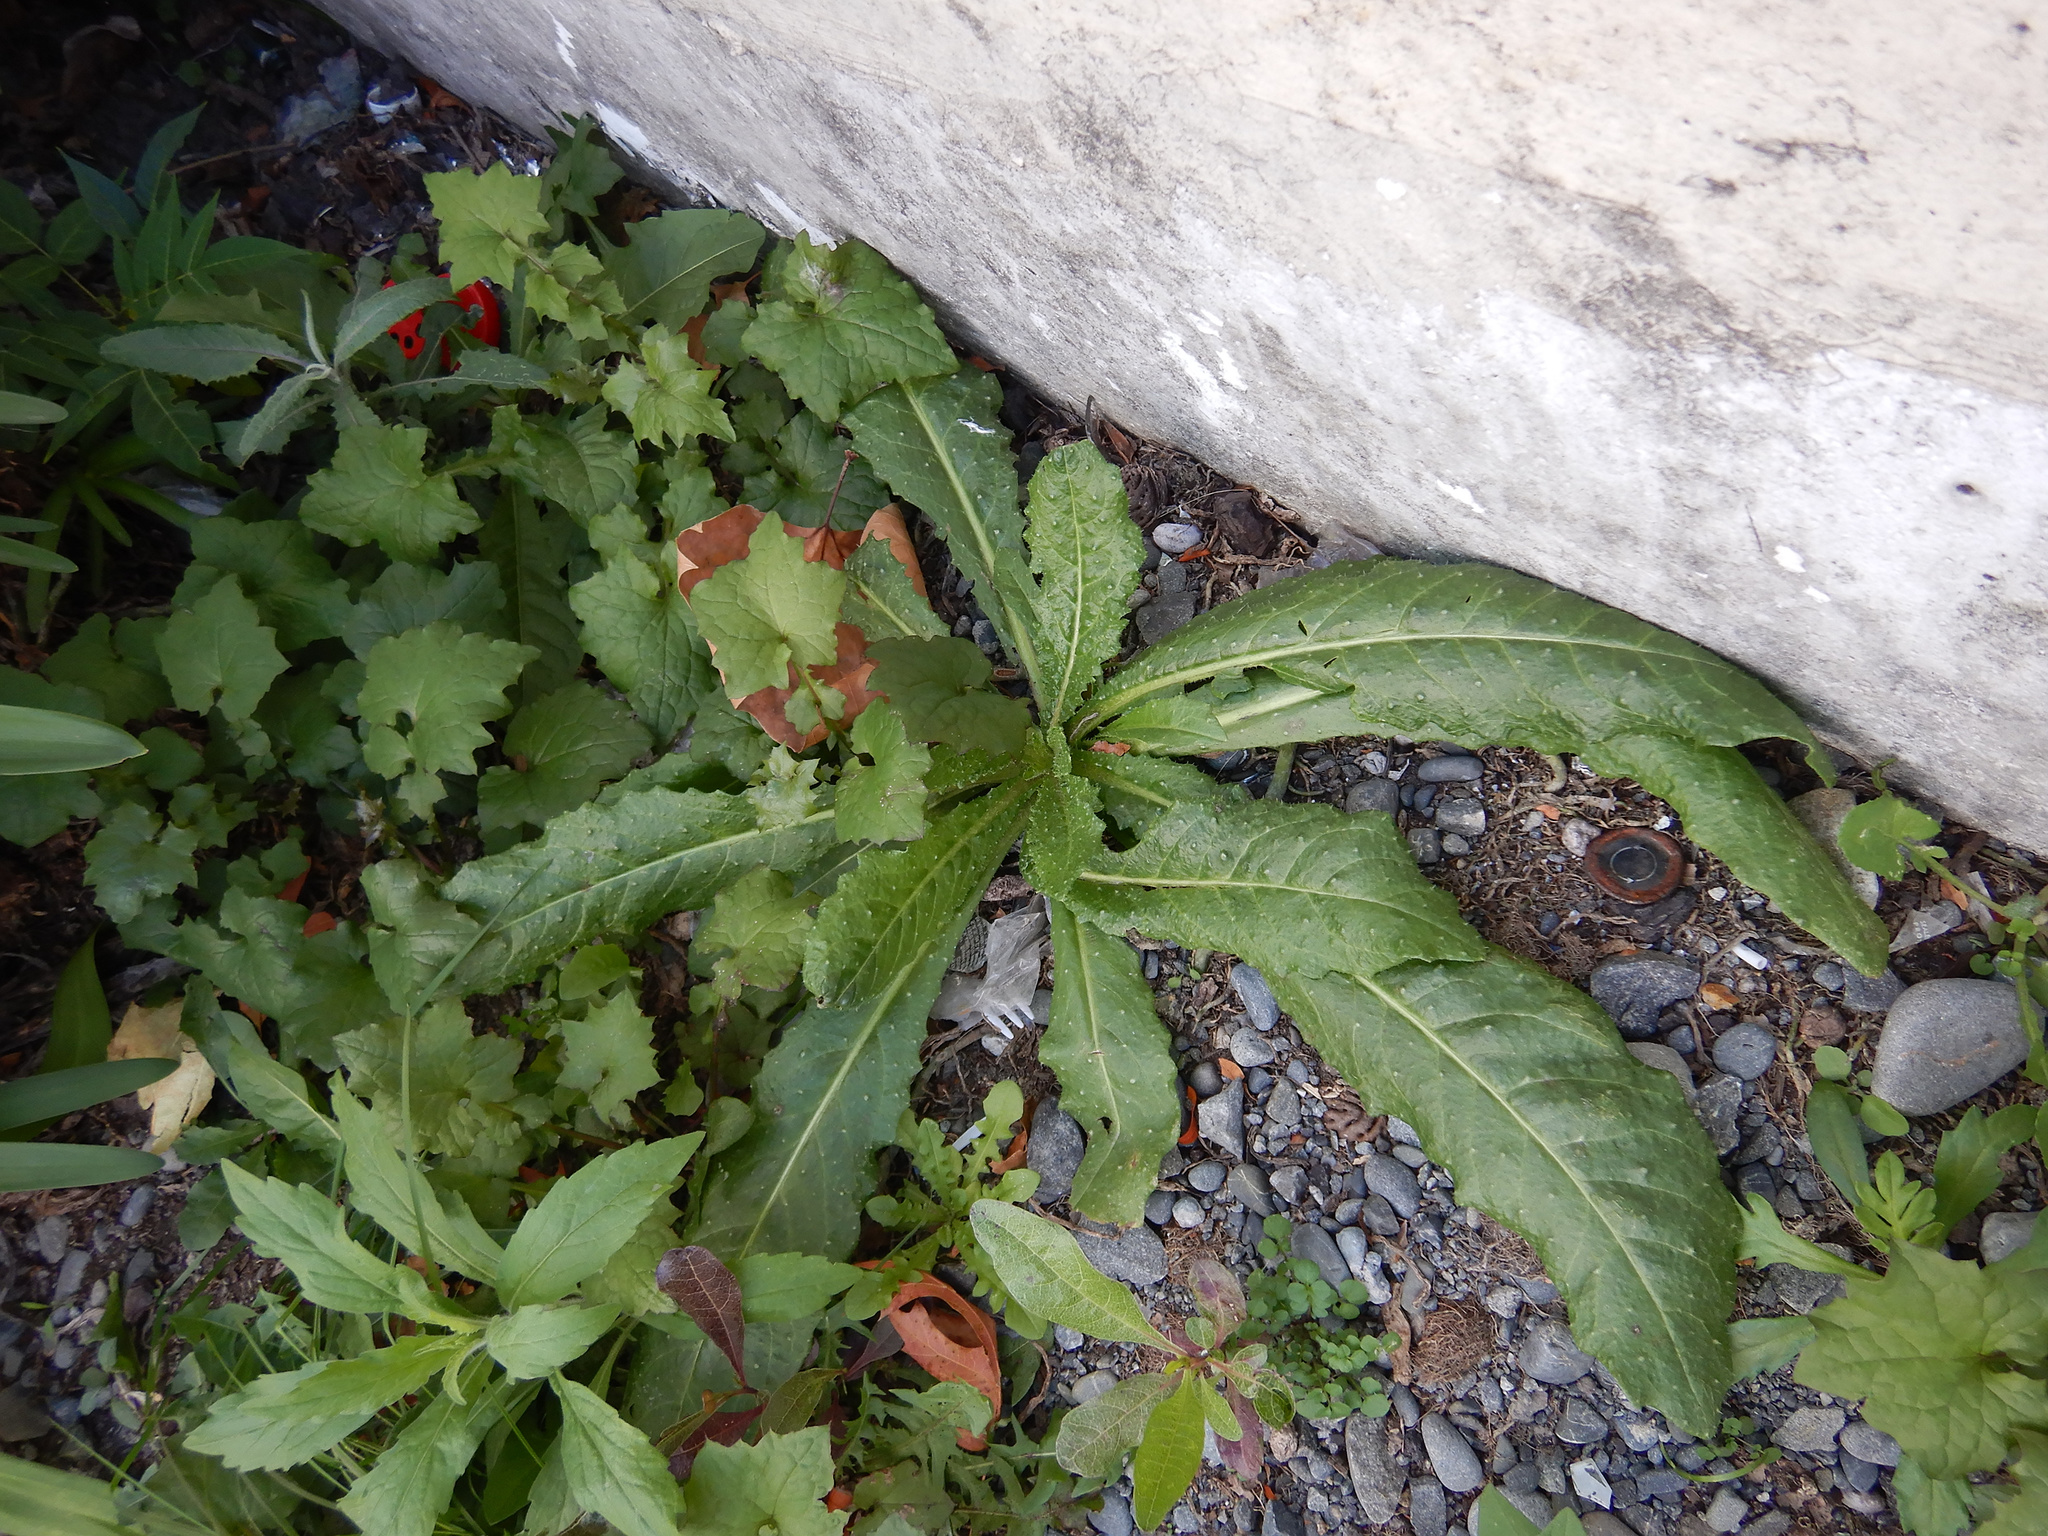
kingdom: Plantae
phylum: Tracheophyta
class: Magnoliopsida
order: Asterales
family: Asteraceae
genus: Helminthotheca
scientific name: Helminthotheca echioides
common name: Ox-tongue
